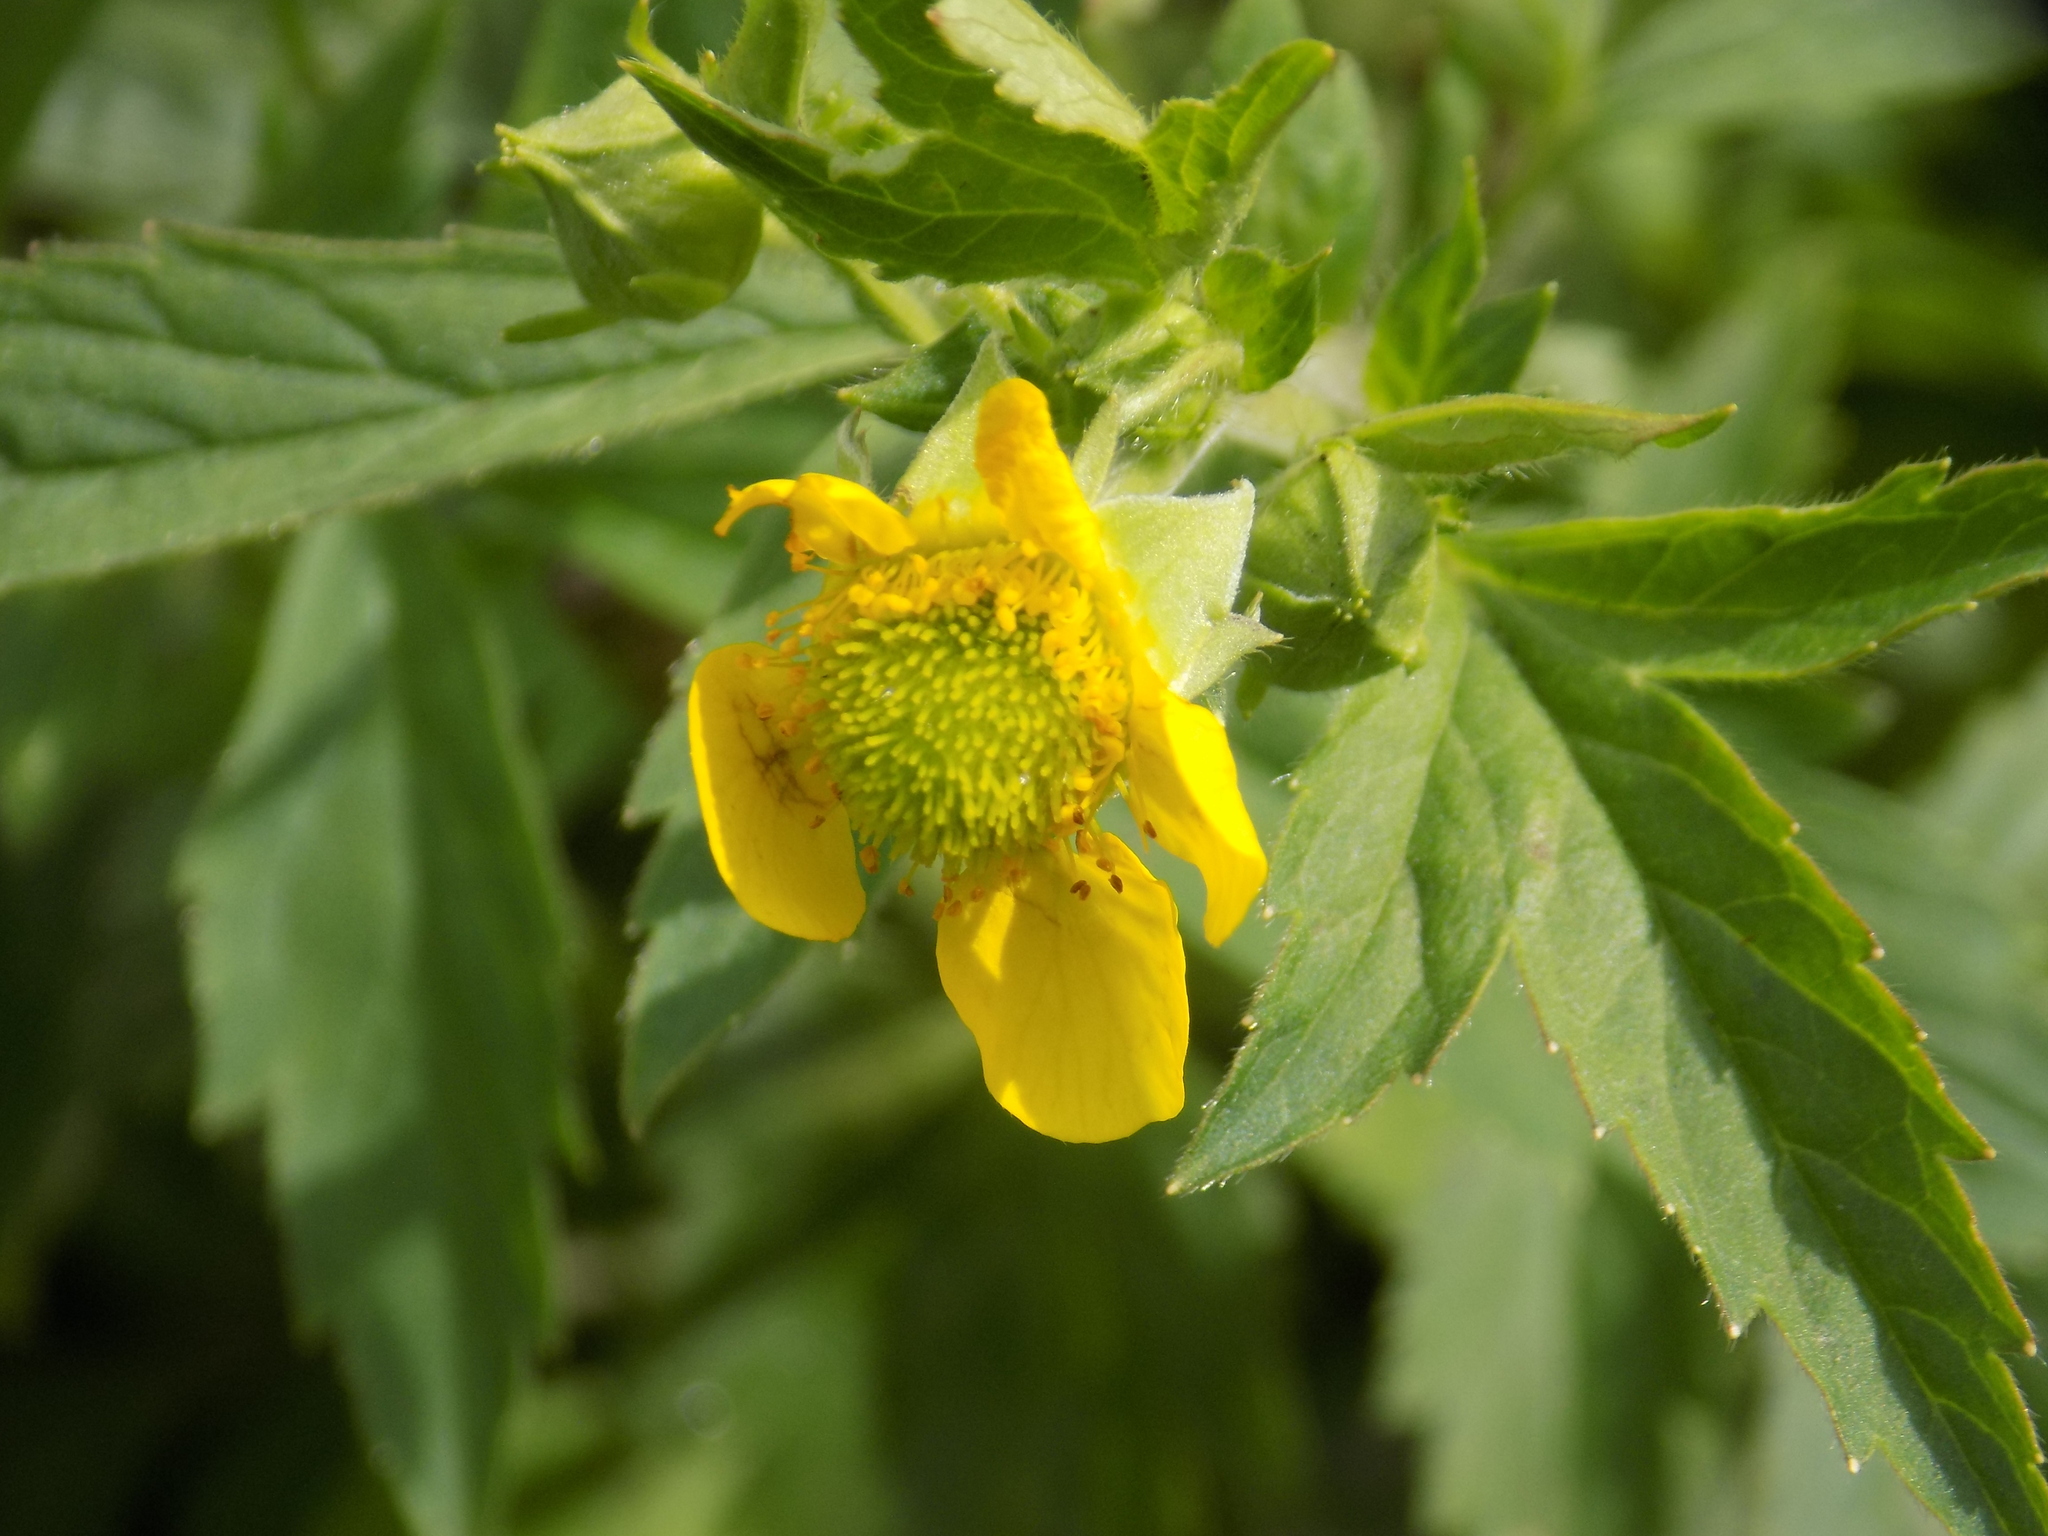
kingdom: Plantae
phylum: Tracheophyta
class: Magnoliopsida
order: Rosales
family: Rosaceae
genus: Geum
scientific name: Geum aleppicum
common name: Yellow avens
